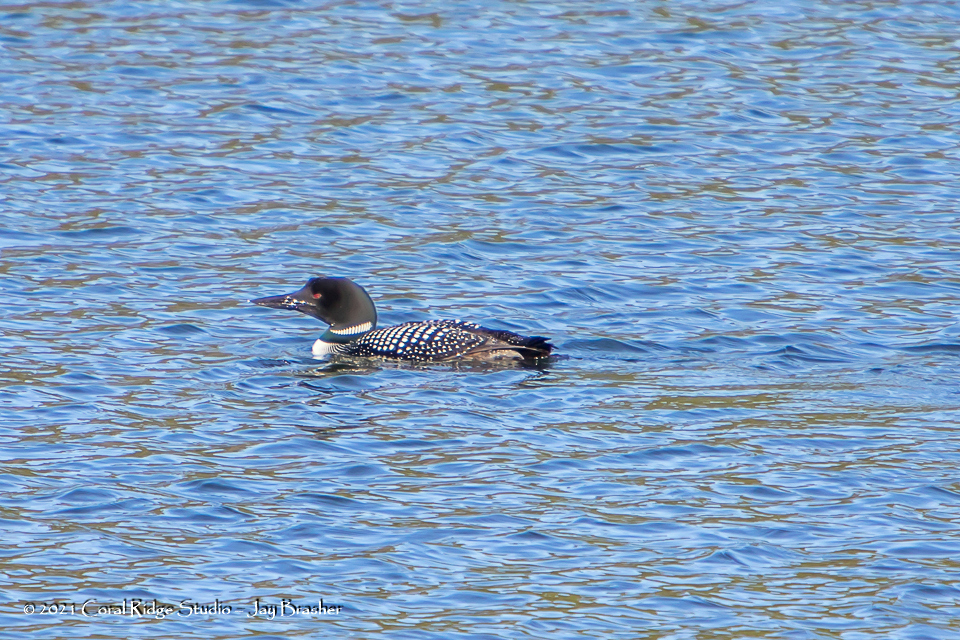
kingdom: Animalia
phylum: Chordata
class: Aves
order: Gaviiformes
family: Gaviidae
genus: Gavia
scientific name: Gavia immer
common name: Common loon
